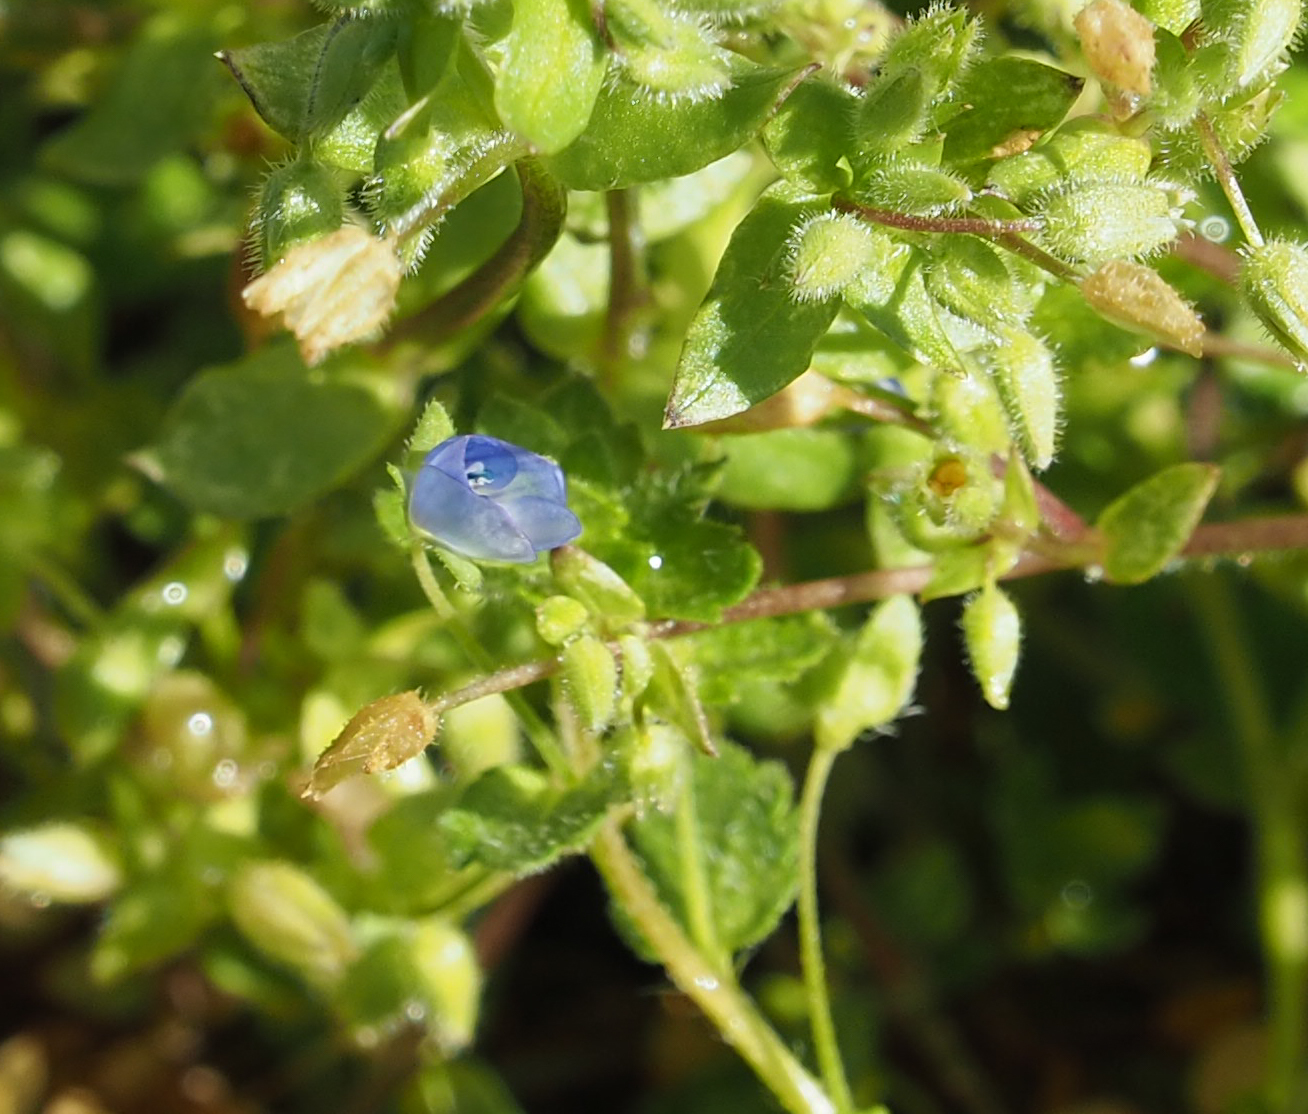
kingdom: Plantae
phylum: Tracheophyta
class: Magnoliopsida
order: Lamiales
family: Plantaginaceae
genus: Veronica
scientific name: Veronica persica
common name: Common field-speedwell
